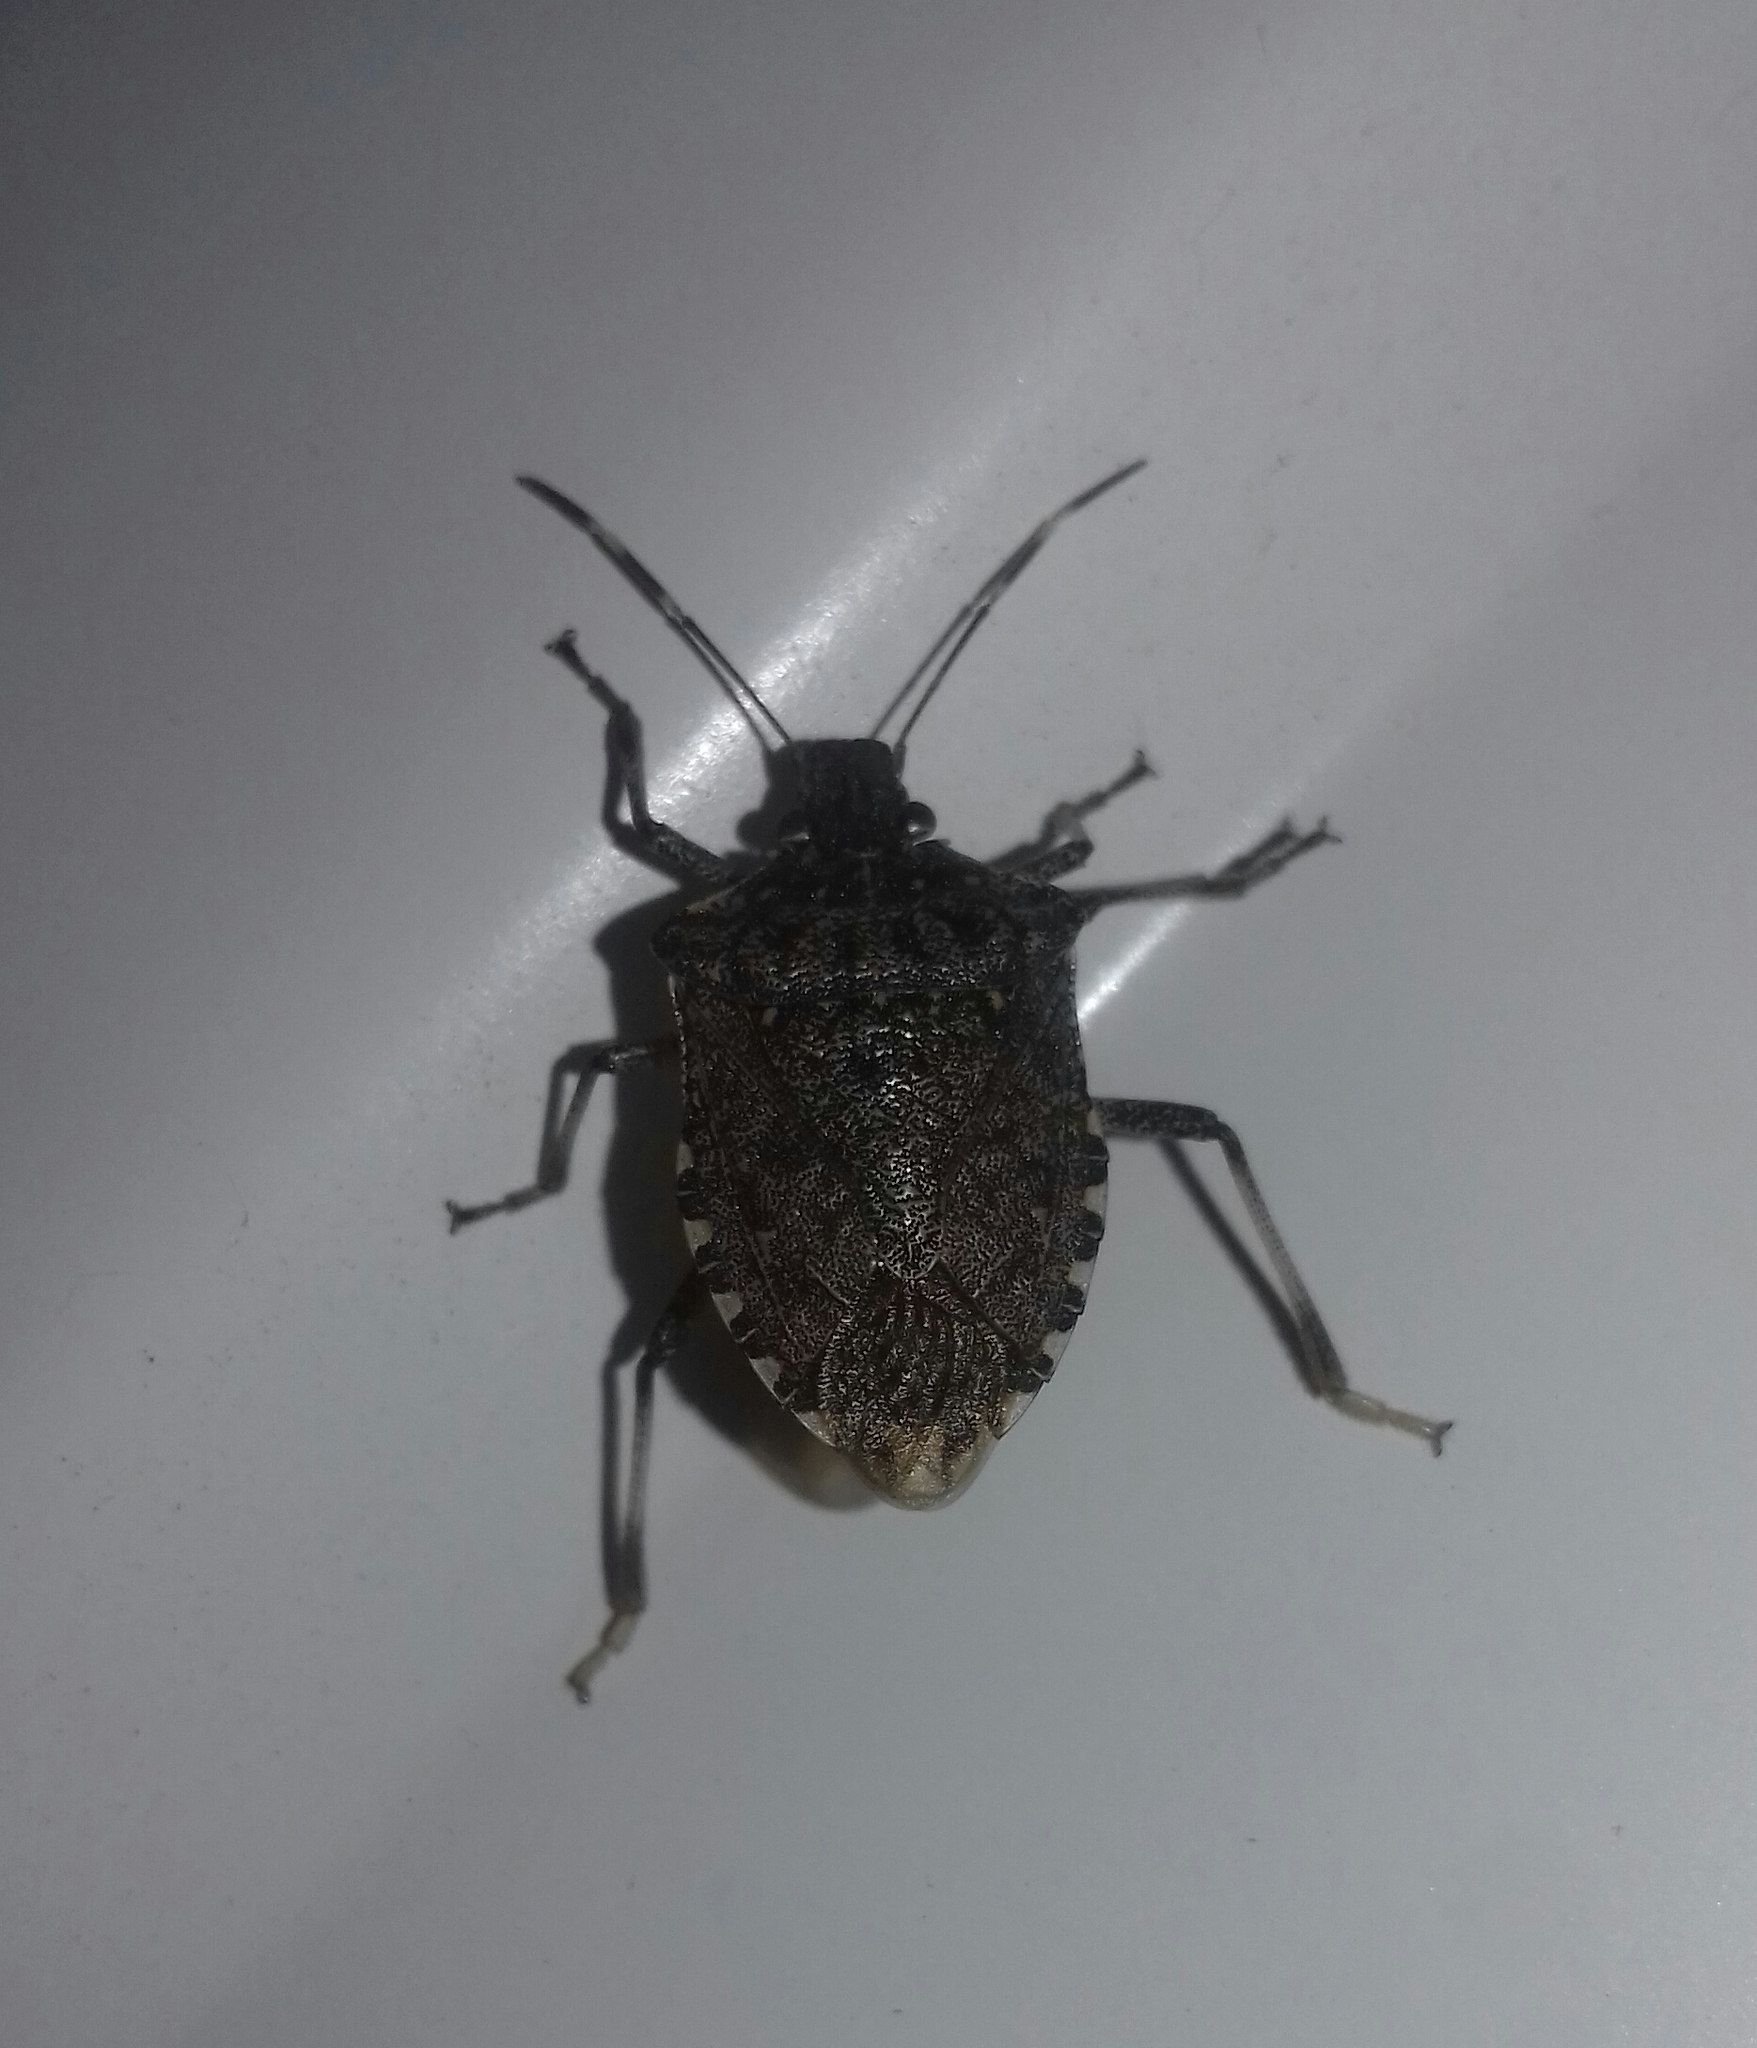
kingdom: Animalia
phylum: Arthropoda
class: Insecta
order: Hemiptera
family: Pentatomidae
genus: Halyomorpha
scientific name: Halyomorpha halys
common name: Brown marmorated stink bug
